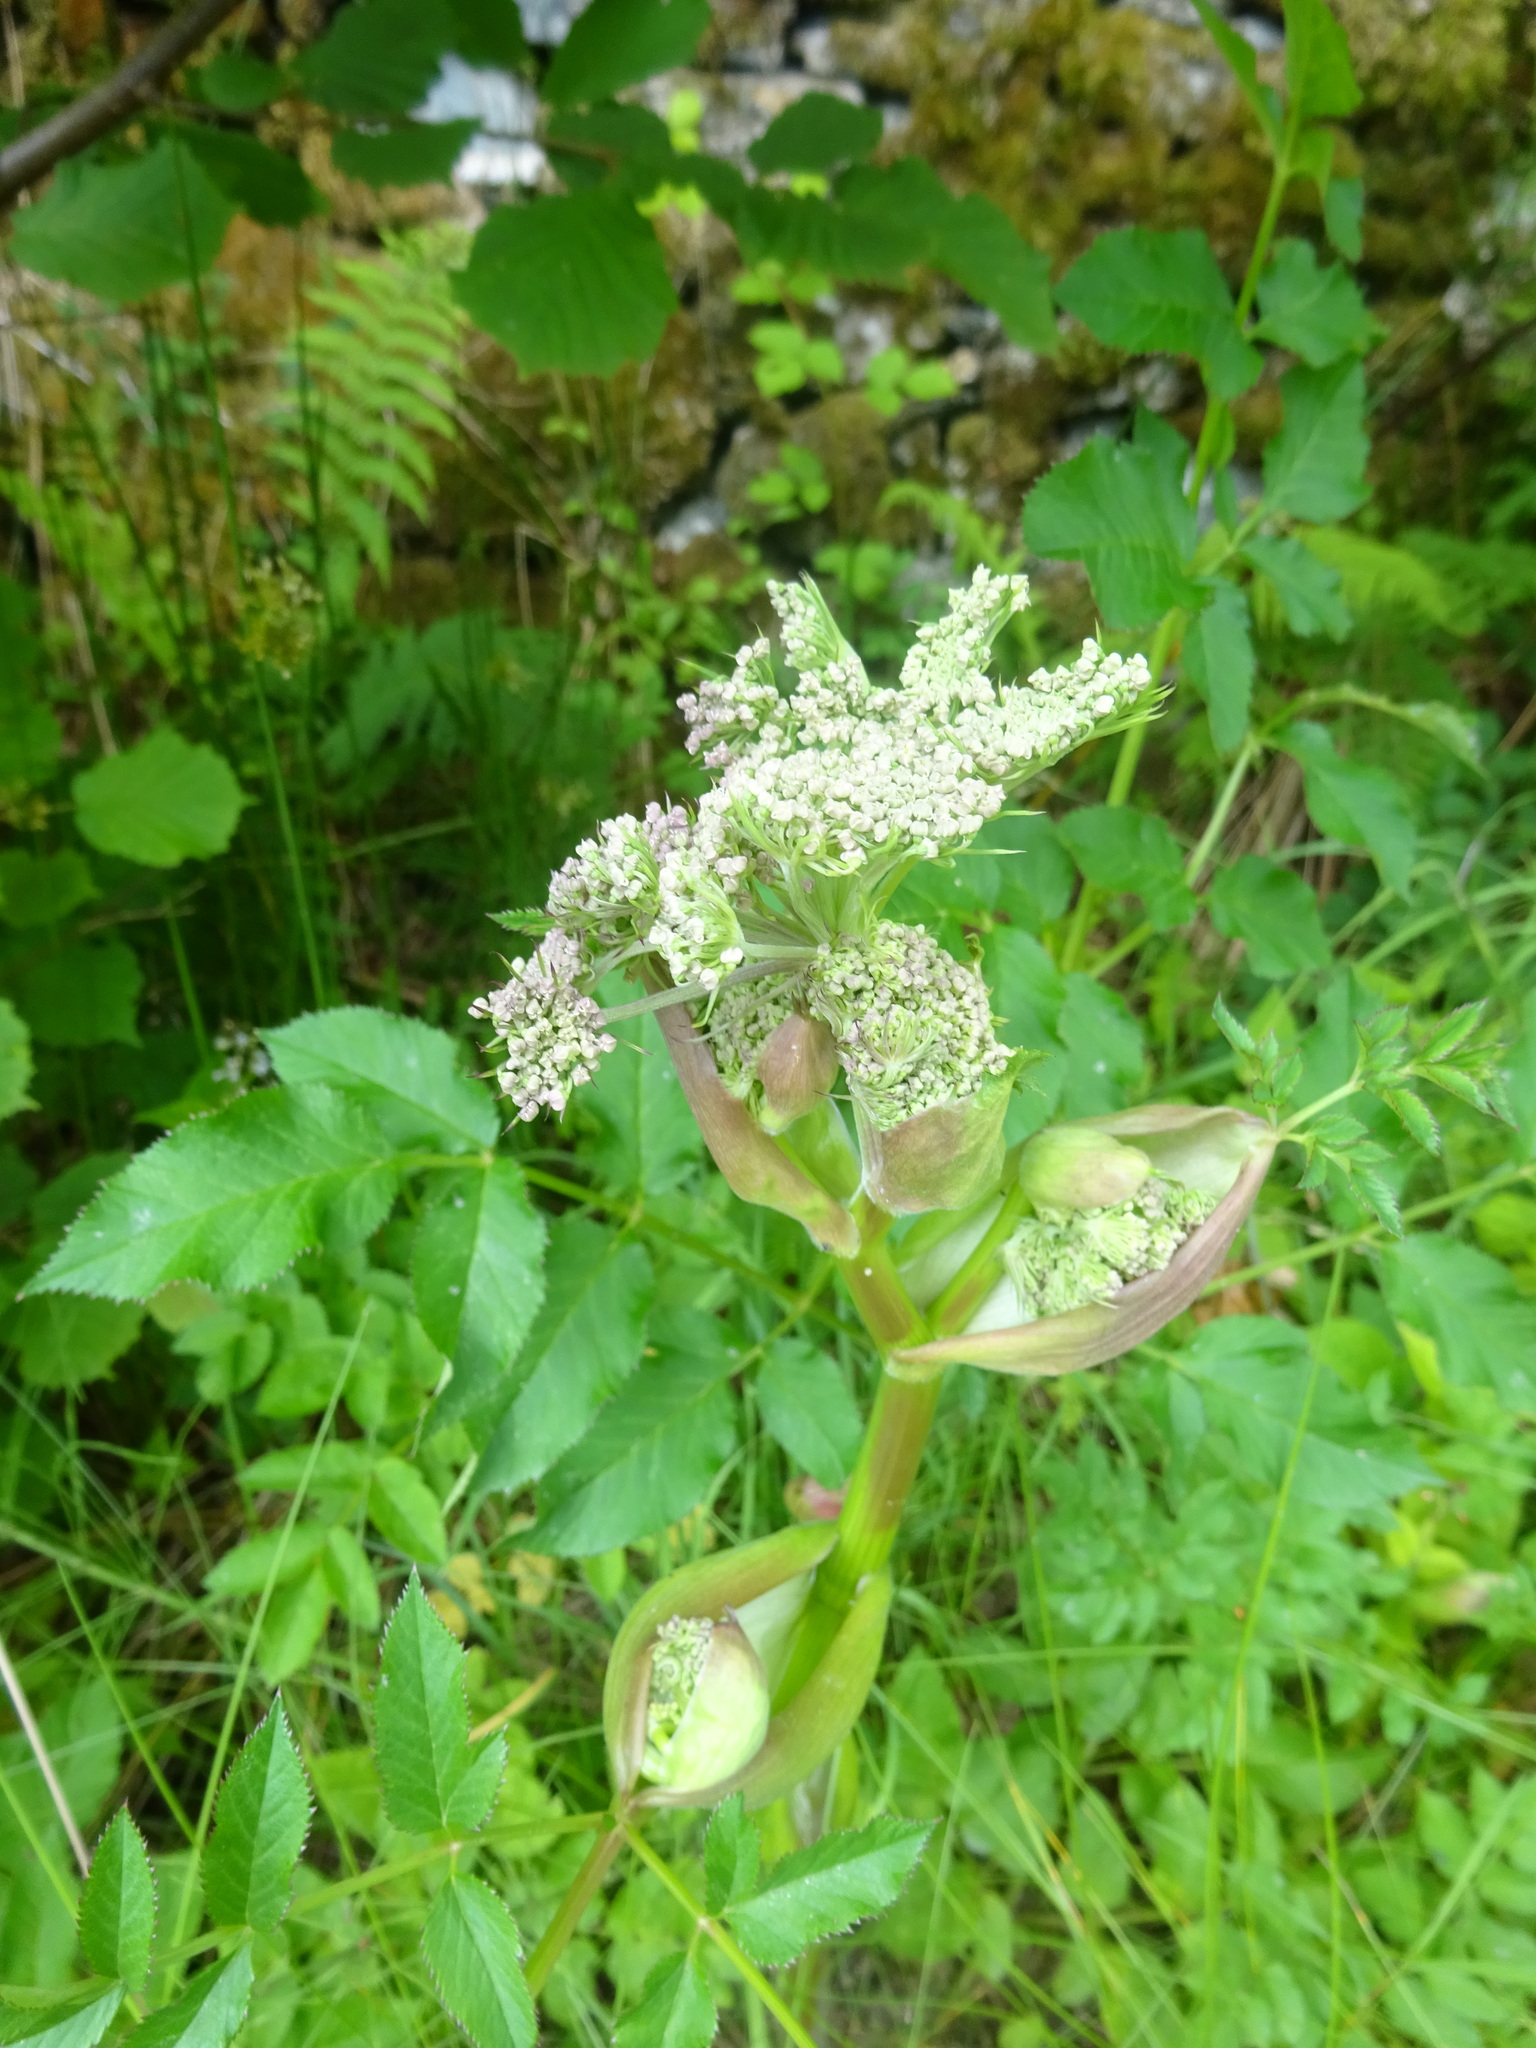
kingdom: Plantae
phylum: Tracheophyta
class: Magnoliopsida
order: Apiales
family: Apiaceae
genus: Angelica
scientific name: Angelica sylvestris
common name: Wild angelica
